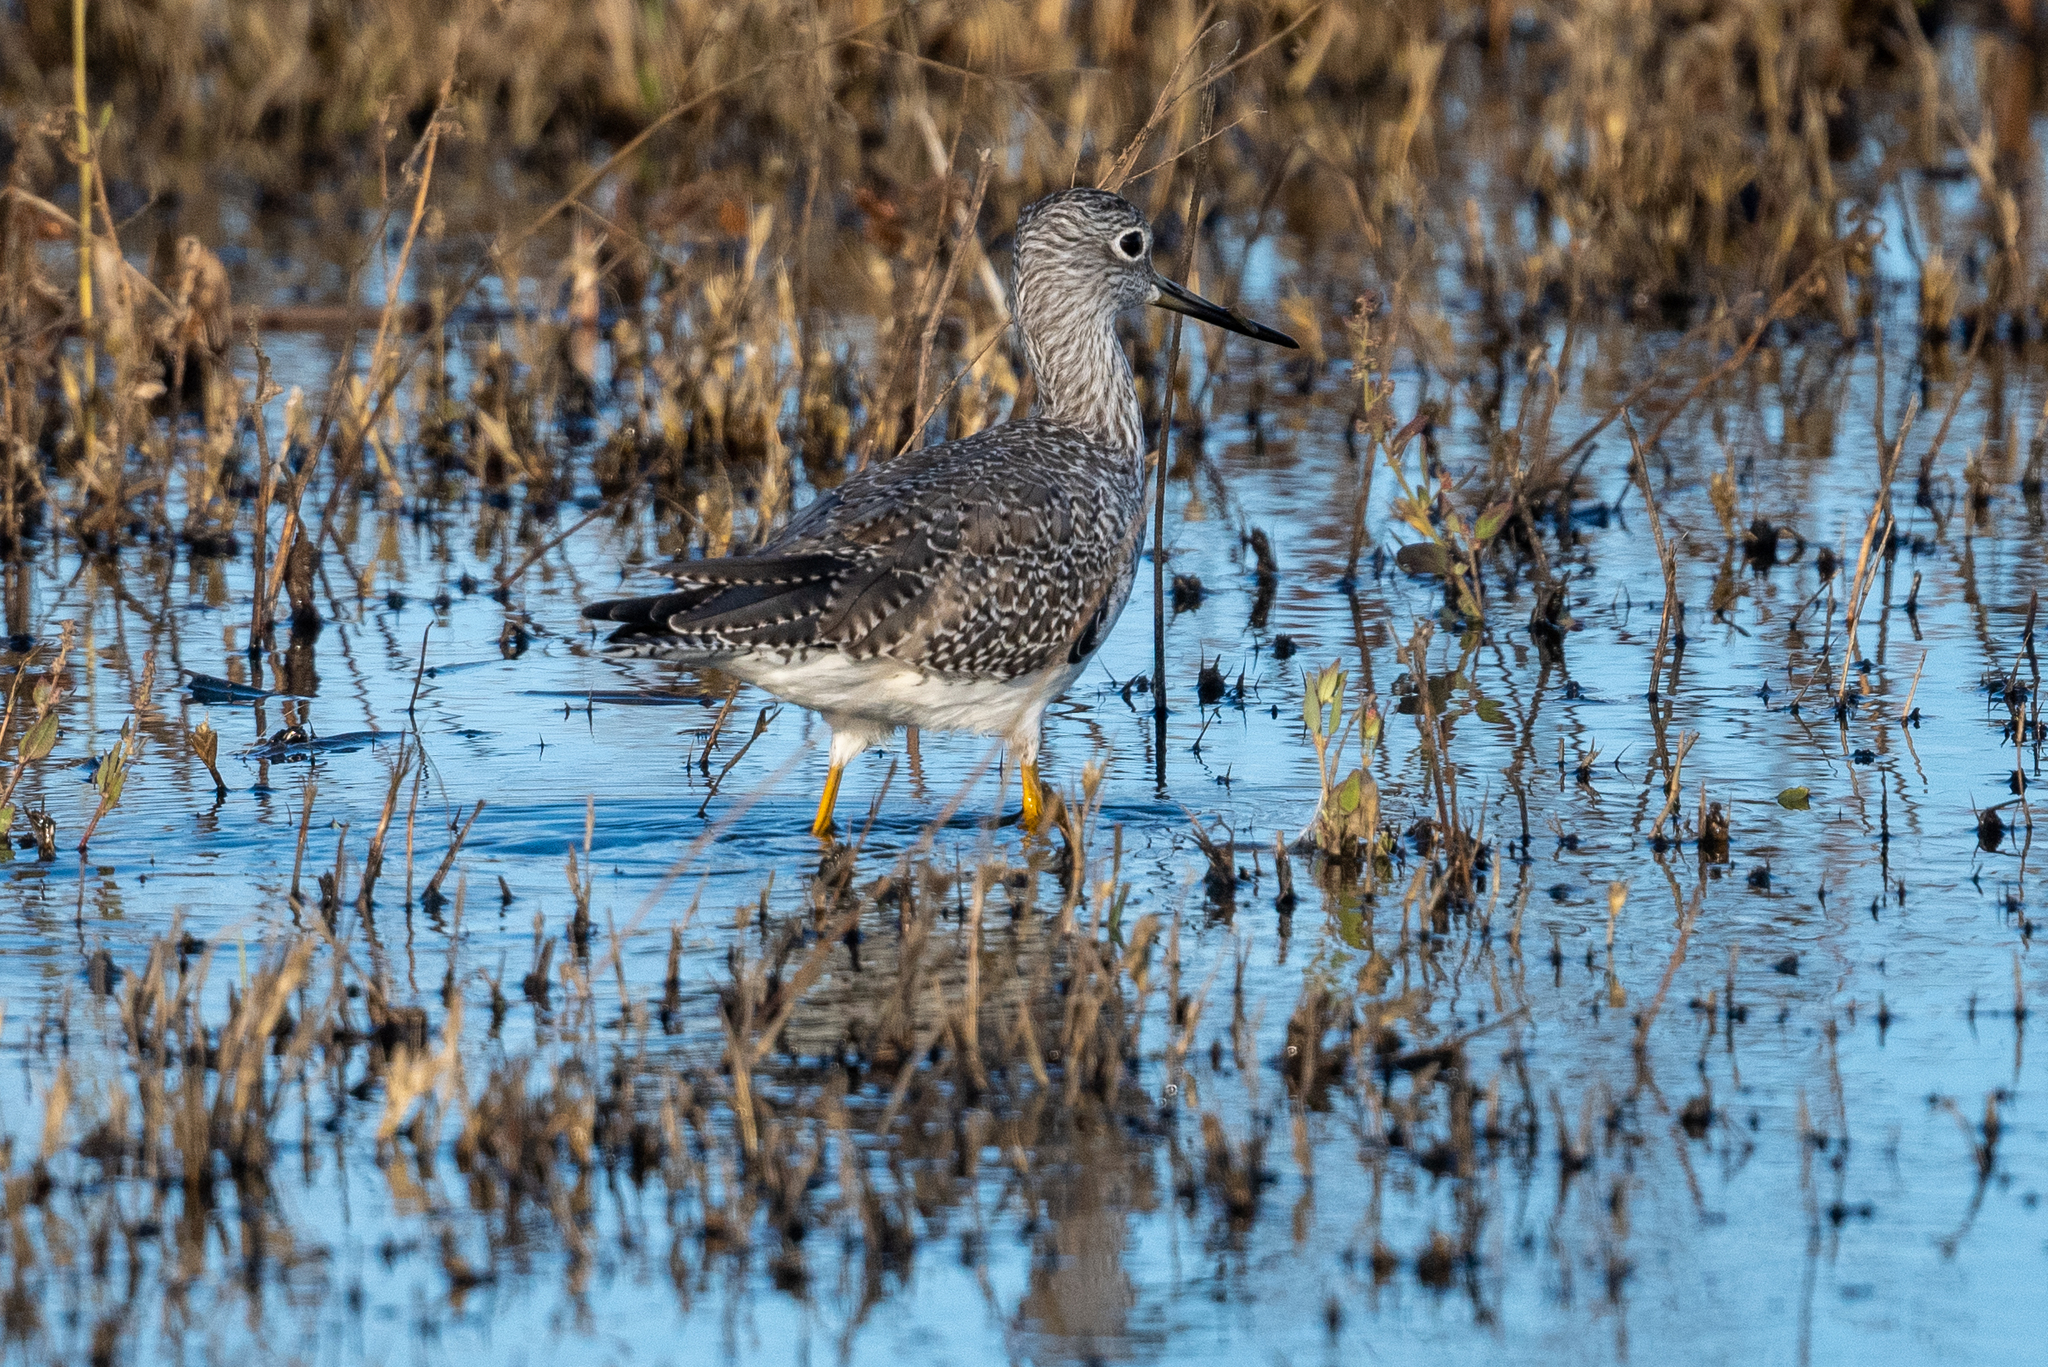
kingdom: Animalia
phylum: Chordata
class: Aves
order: Charadriiformes
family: Scolopacidae
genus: Tringa
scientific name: Tringa melanoleuca
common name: Greater yellowlegs
